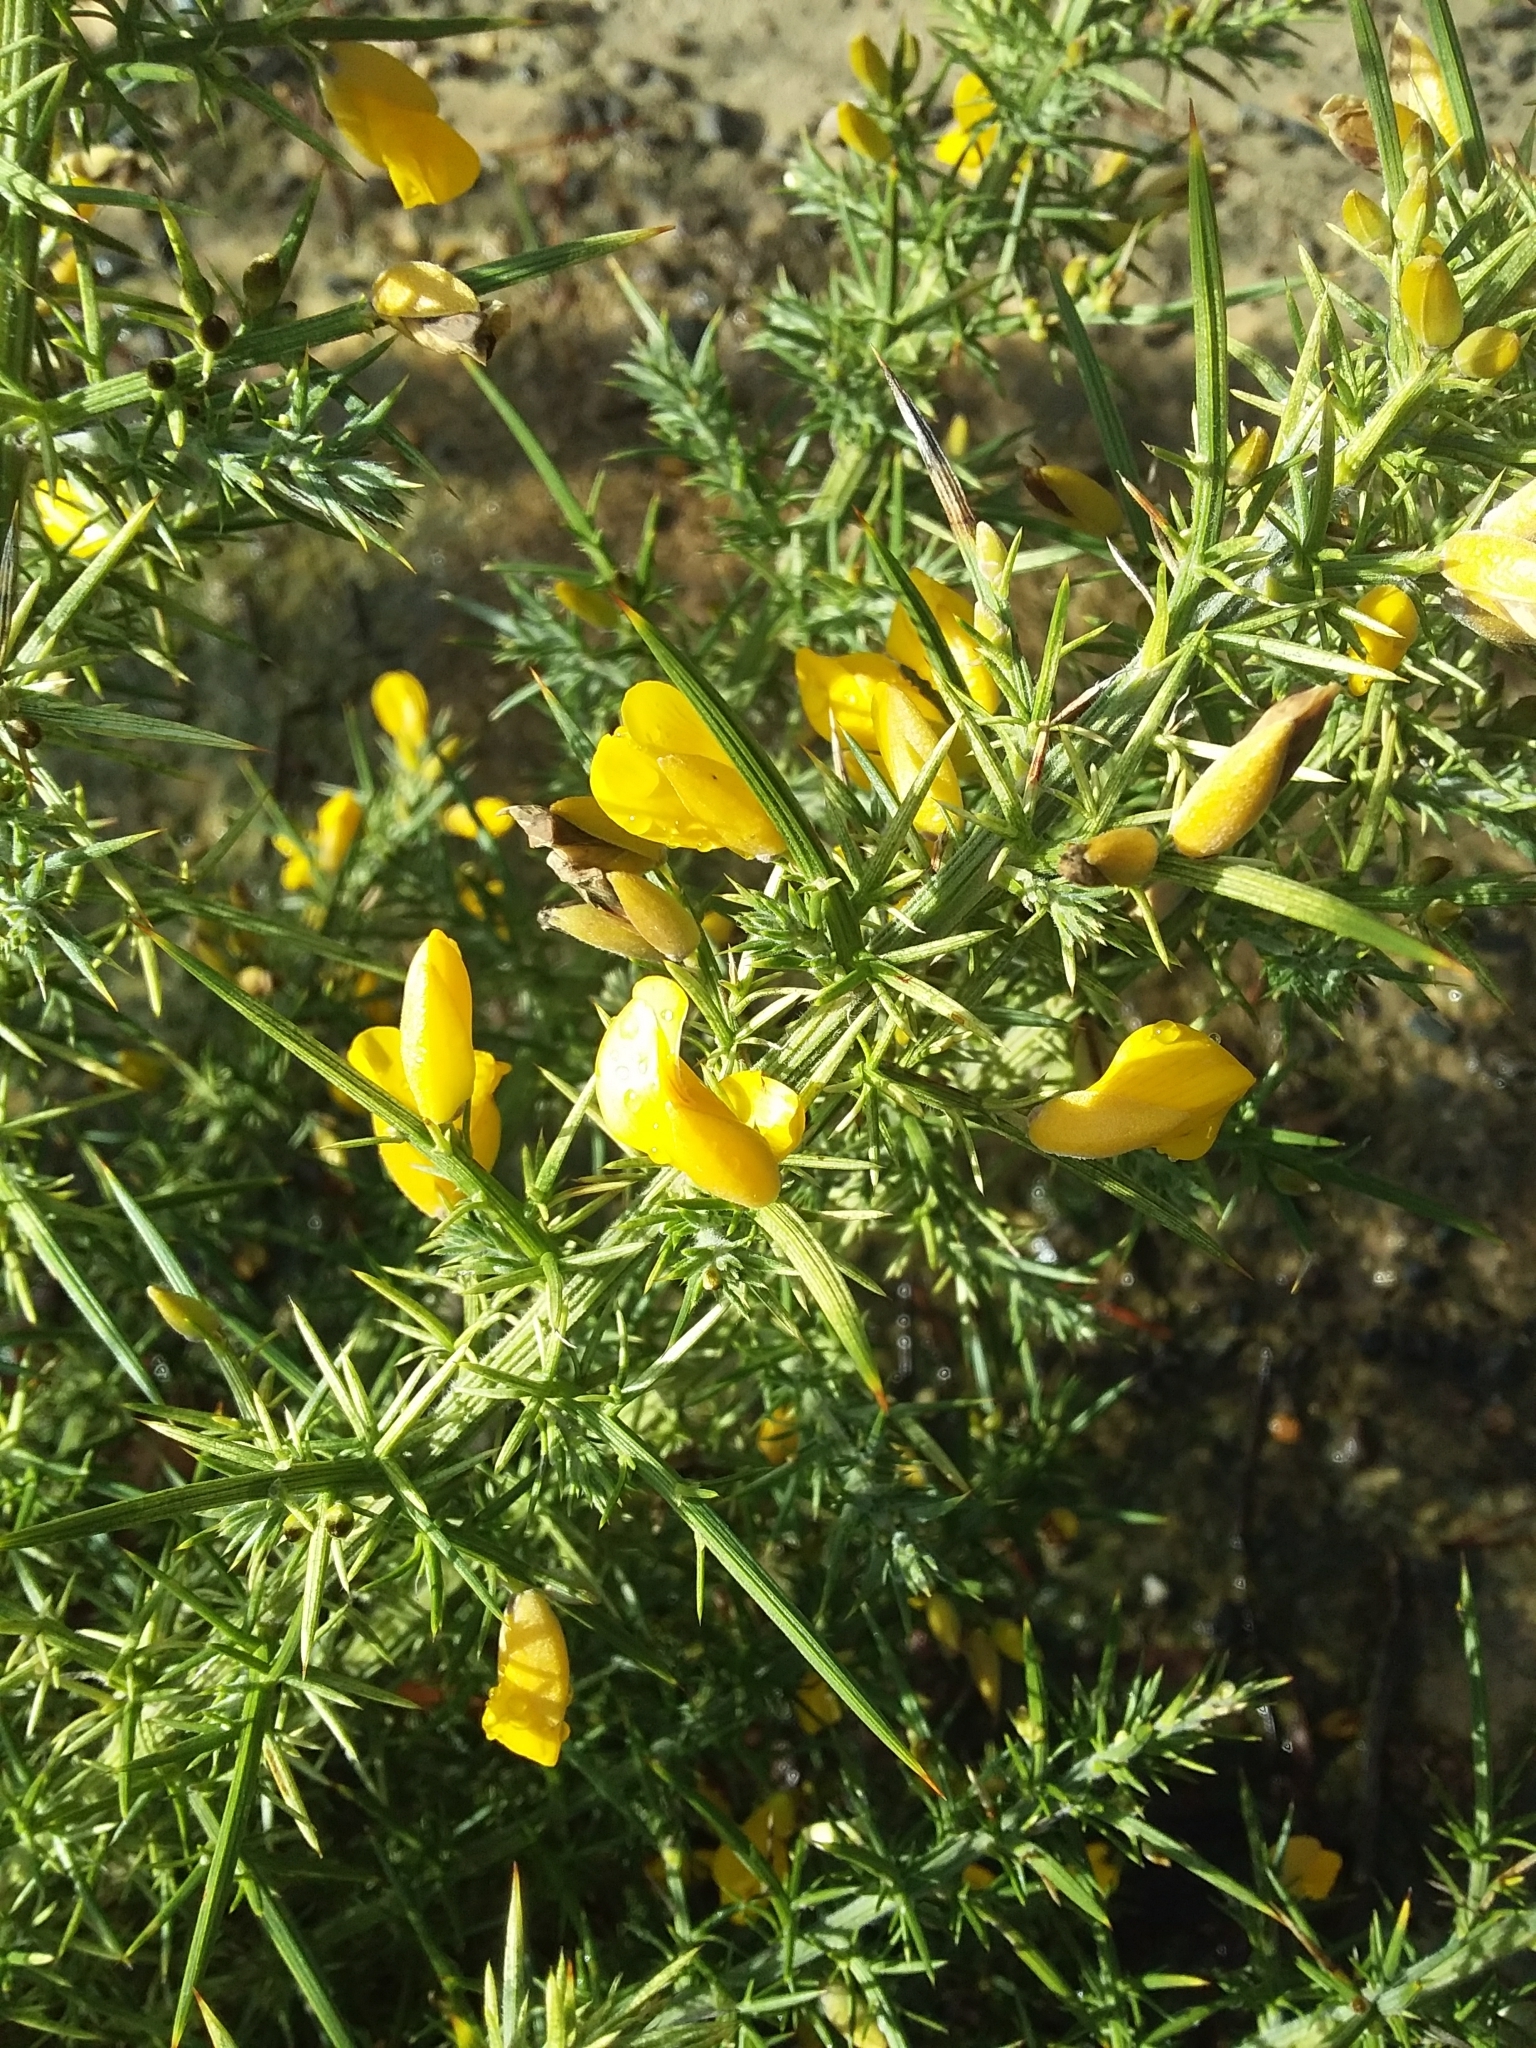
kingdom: Plantae
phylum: Tracheophyta
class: Magnoliopsida
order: Fabales
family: Fabaceae
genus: Ulex
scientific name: Ulex europaeus
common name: Common gorse
